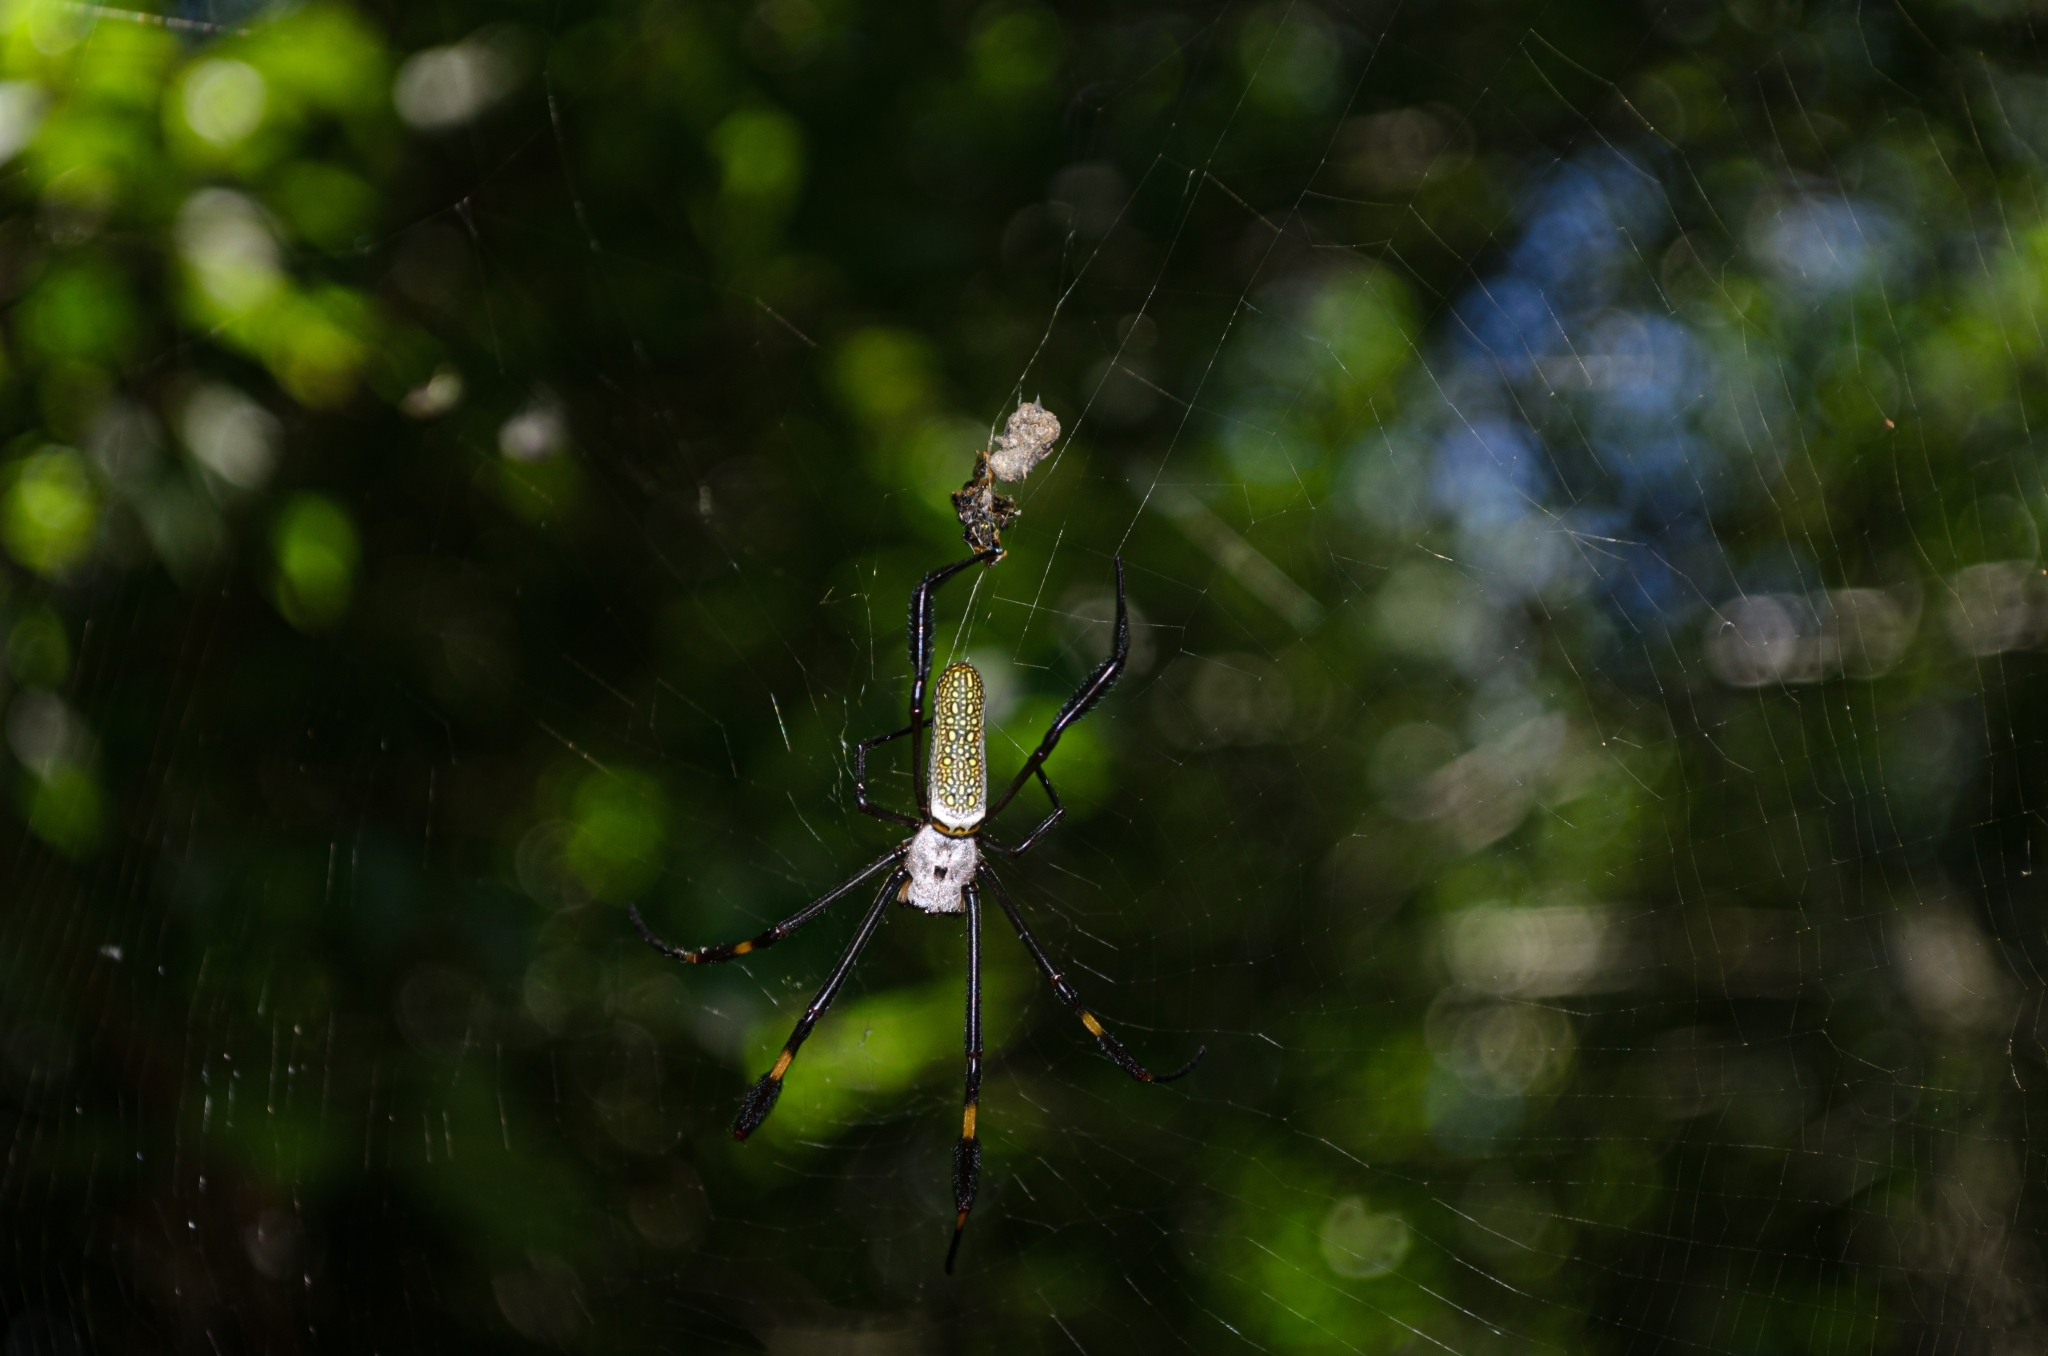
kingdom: Animalia
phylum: Arthropoda
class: Arachnida
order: Araneae
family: Araneidae
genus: Trichonephila
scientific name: Trichonephila clavipes
